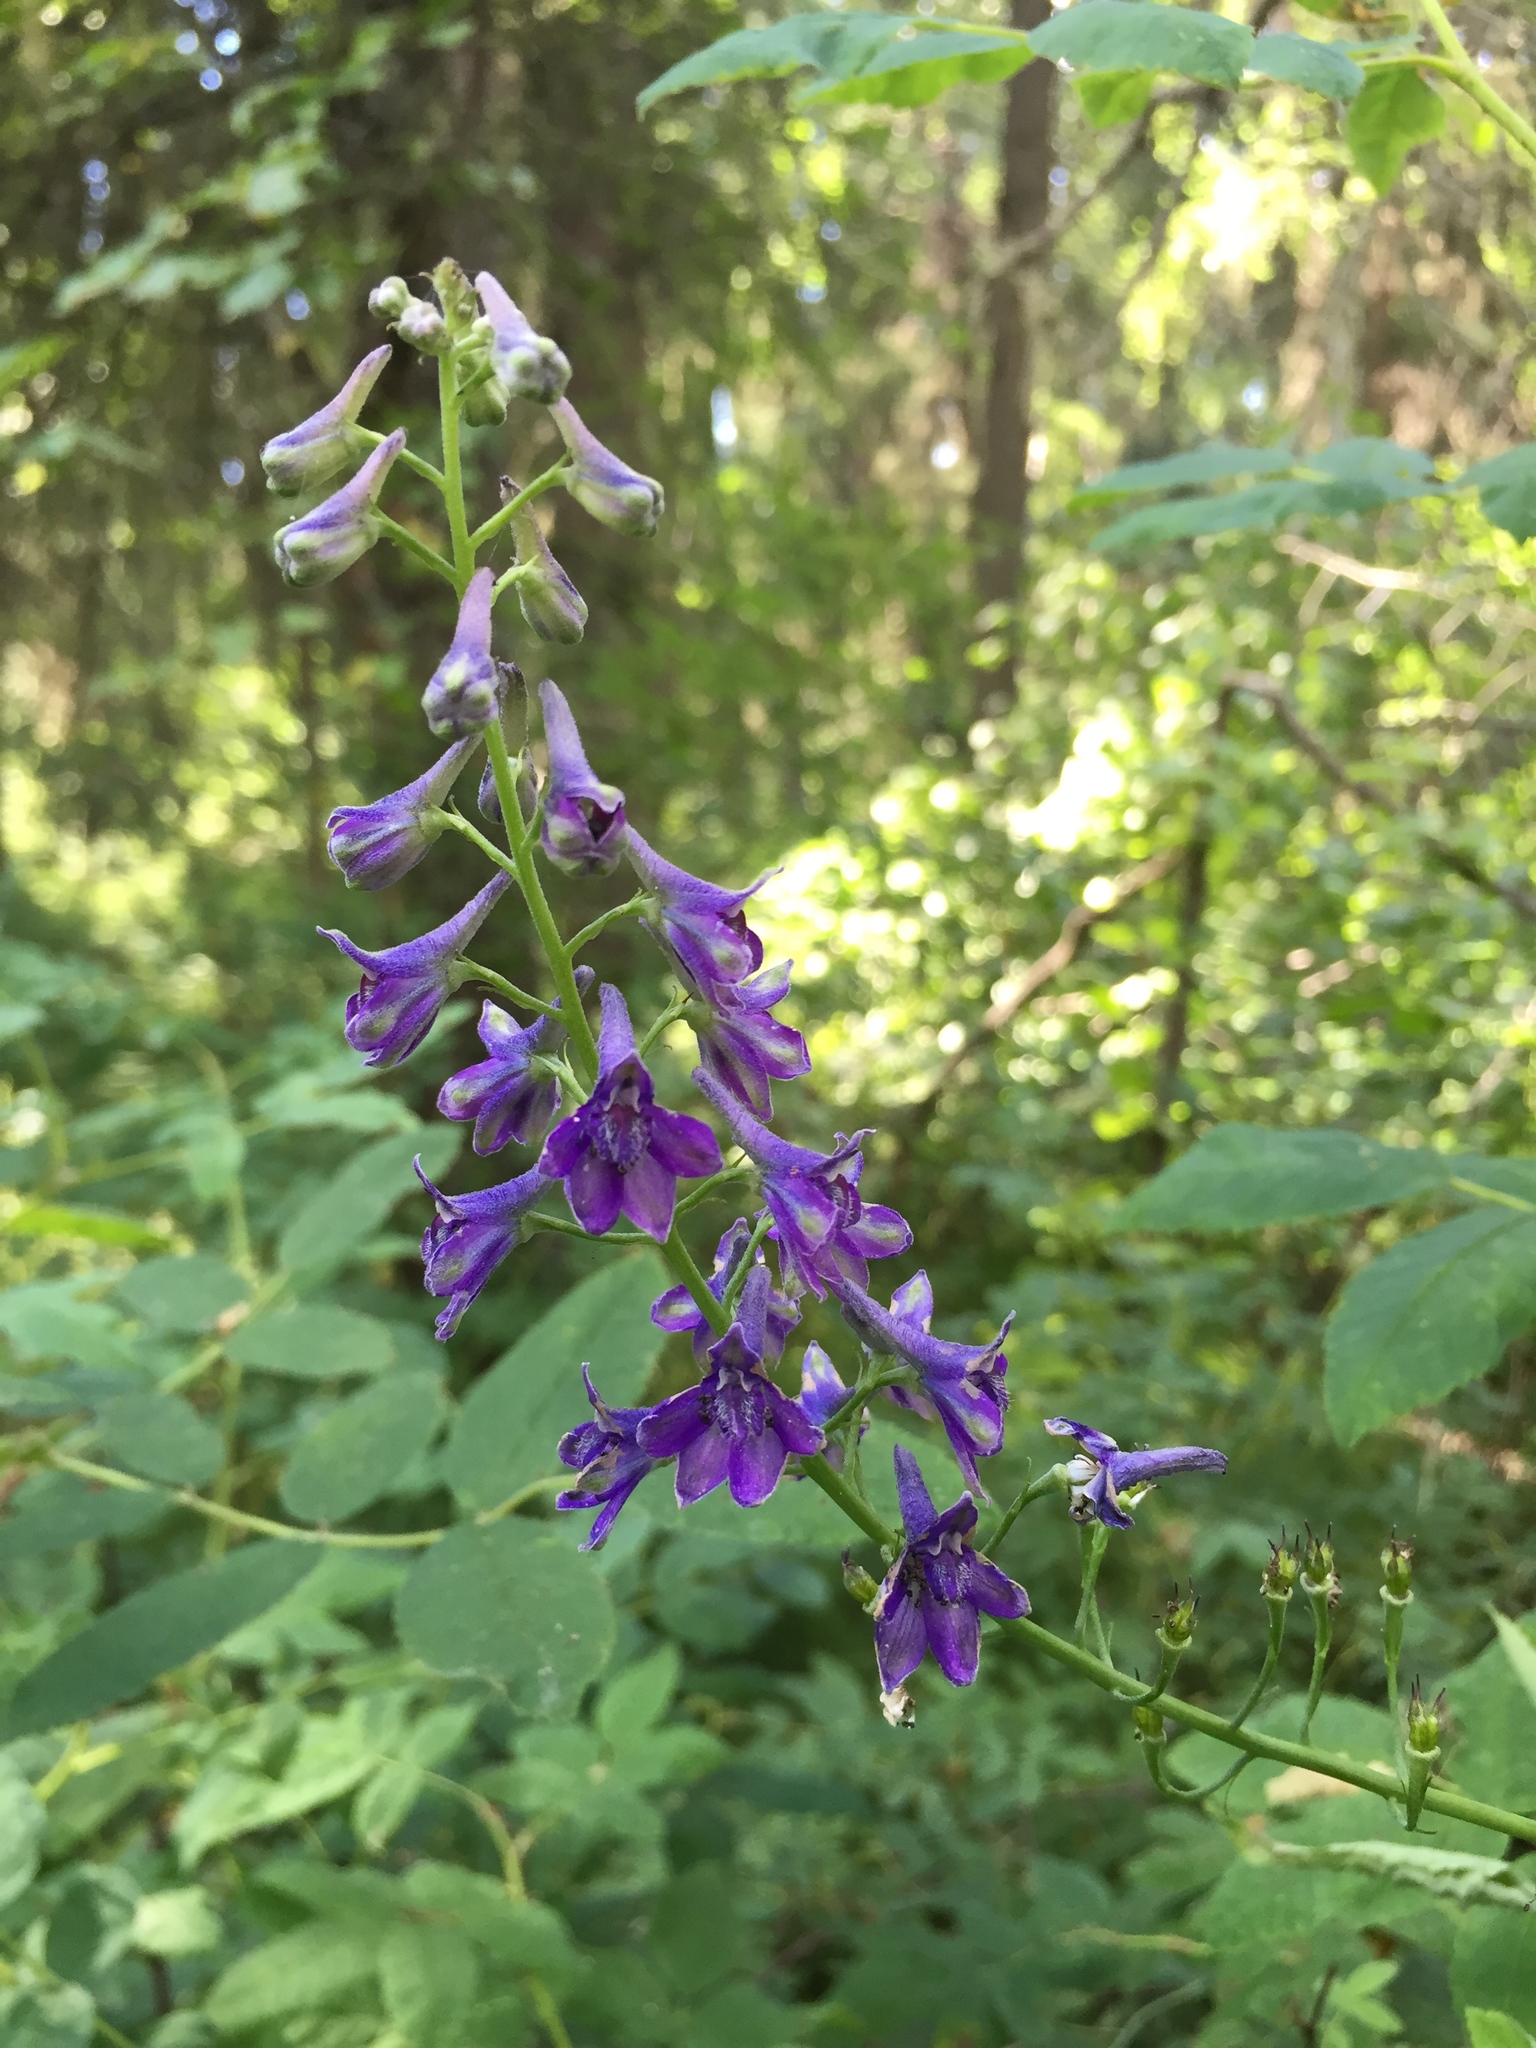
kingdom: Plantae
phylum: Tracheophyta
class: Magnoliopsida
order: Ranunculales
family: Ranunculaceae
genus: Delphinium
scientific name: Delphinium glaucum
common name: Brown's larkspur
